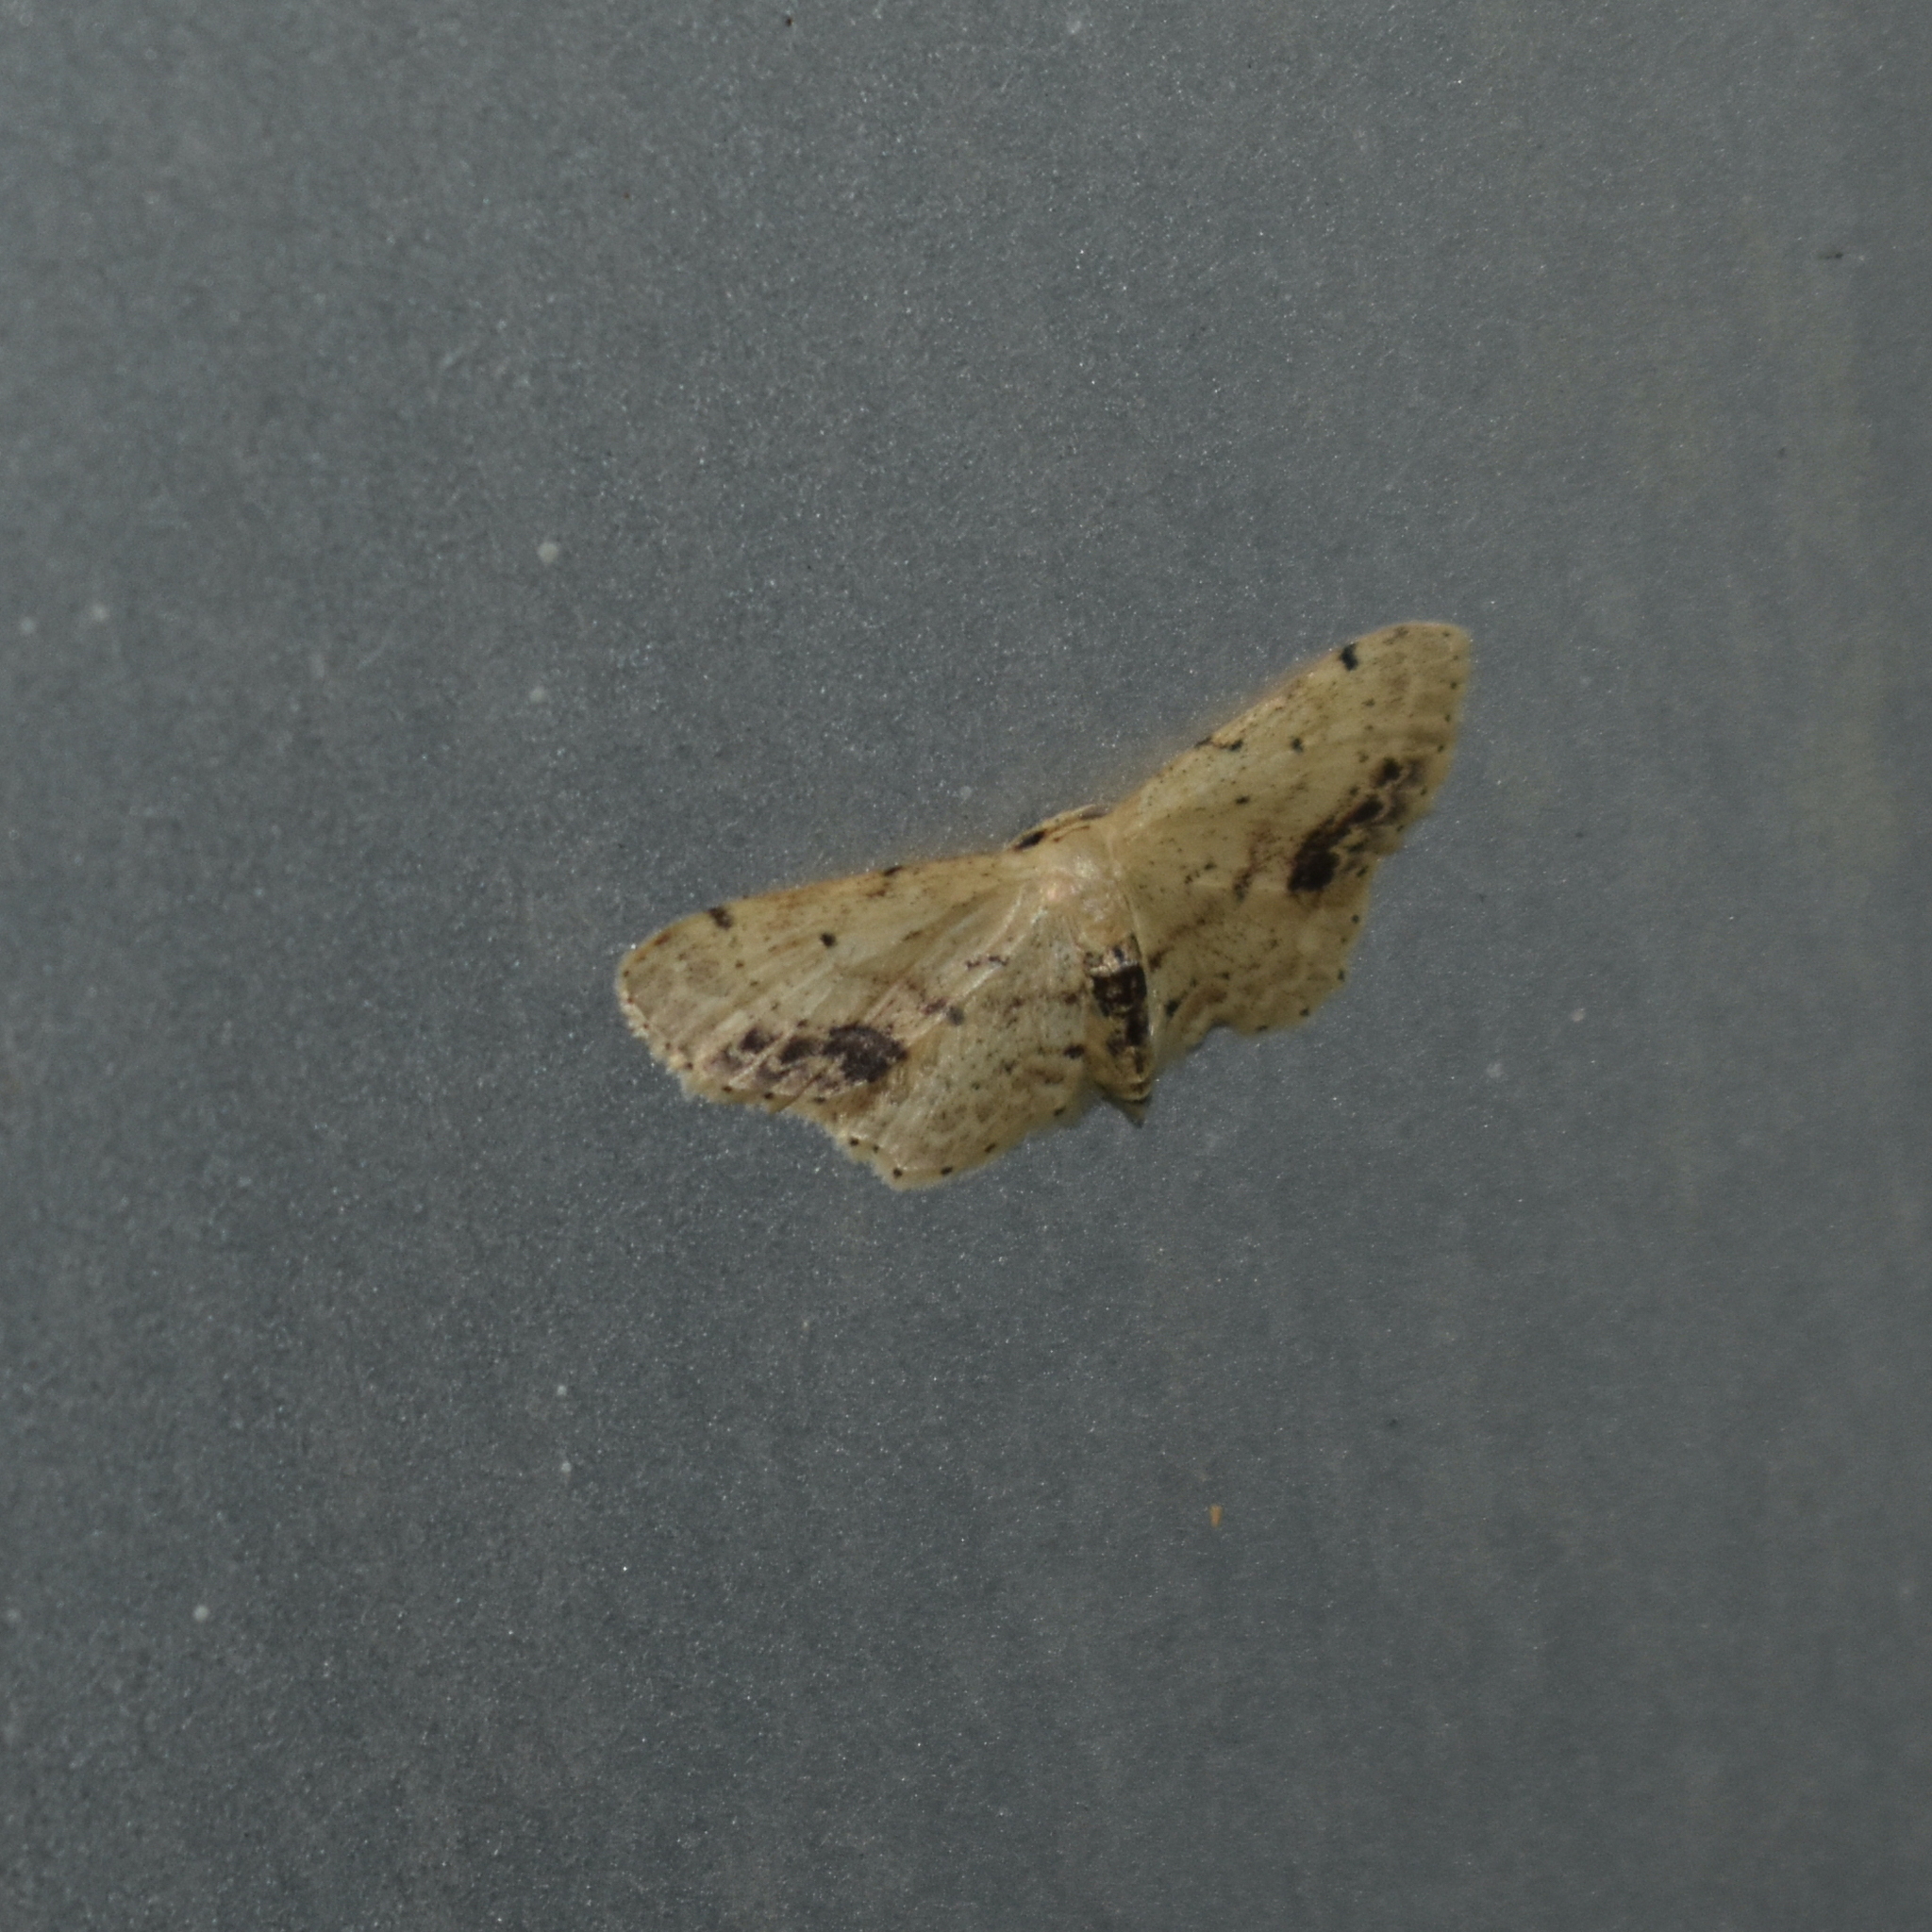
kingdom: Animalia
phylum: Arthropoda
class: Insecta
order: Lepidoptera
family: Geometridae
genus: Idaea
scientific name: Idaea dimidiata
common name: Single-dotted wave
